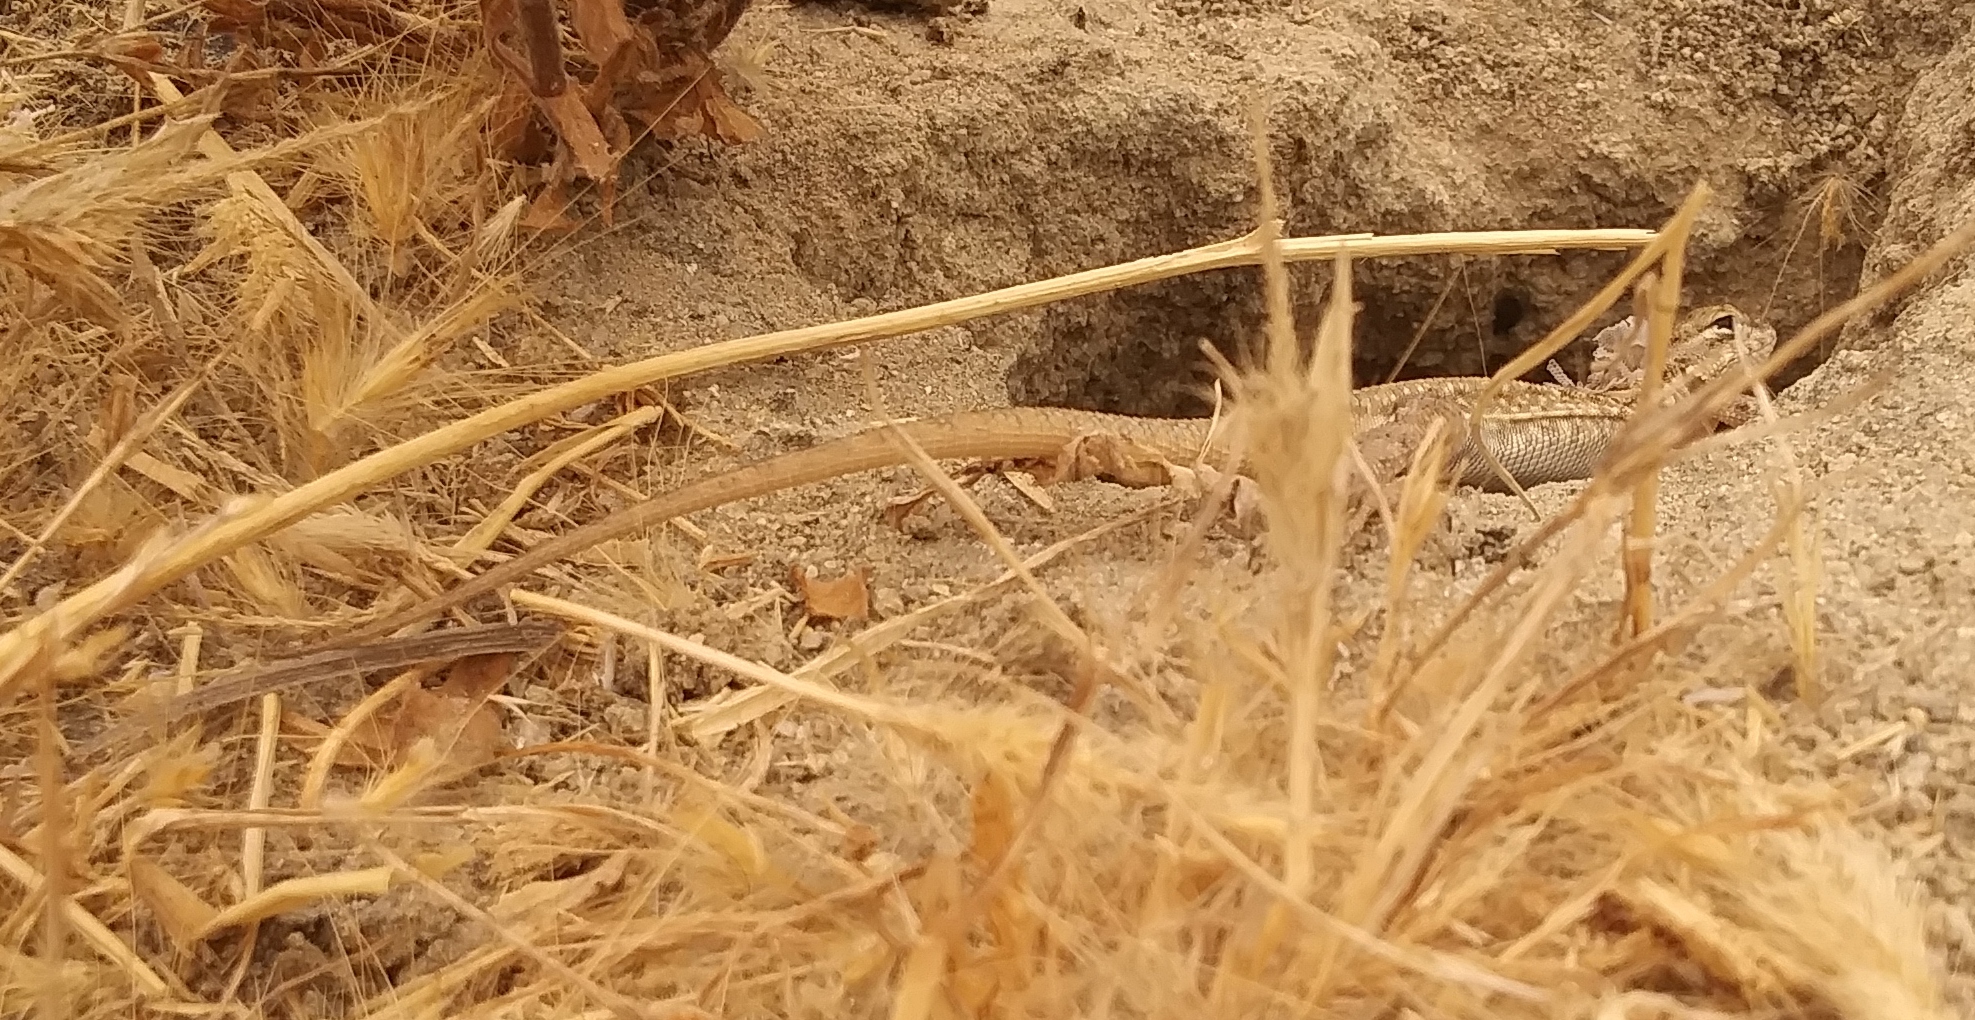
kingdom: Animalia
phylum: Chordata
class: Squamata
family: Phrynosomatidae
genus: Uta
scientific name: Uta stansburiana
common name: Side-blotched lizard
